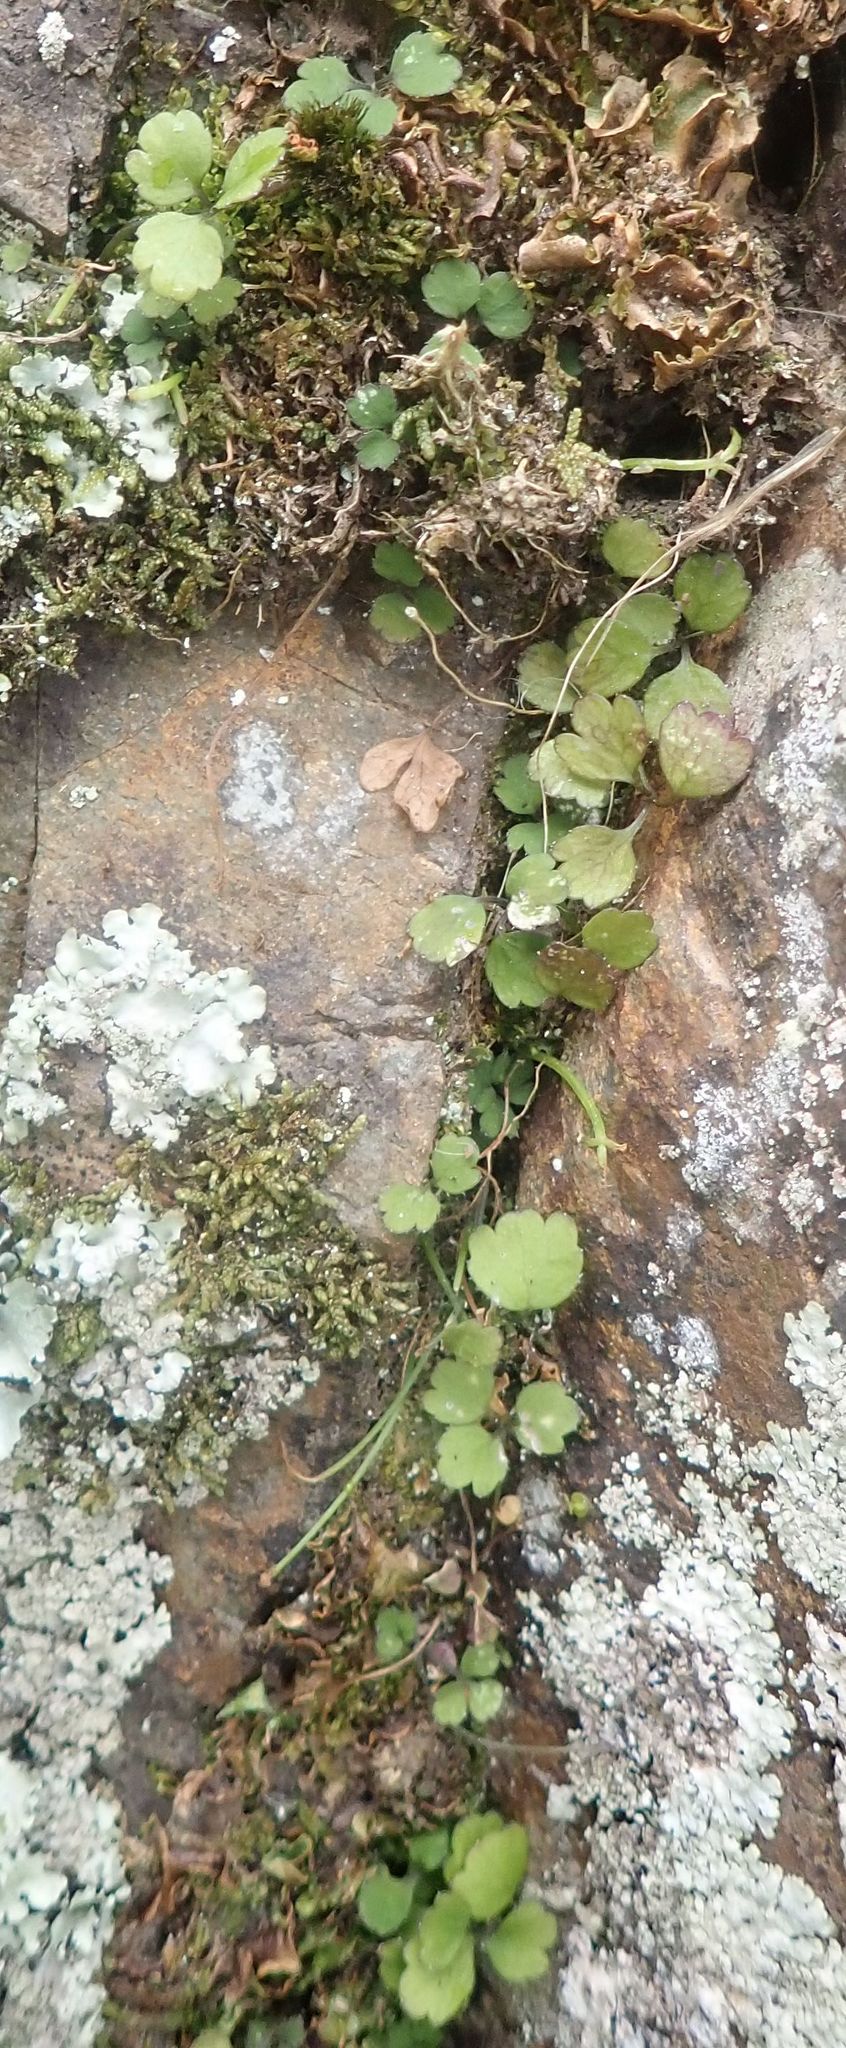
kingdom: Plantae
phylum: Tracheophyta
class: Magnoliopsida
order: Apiales
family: Apiaceae
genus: Azorella
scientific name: Azorella hookeri
